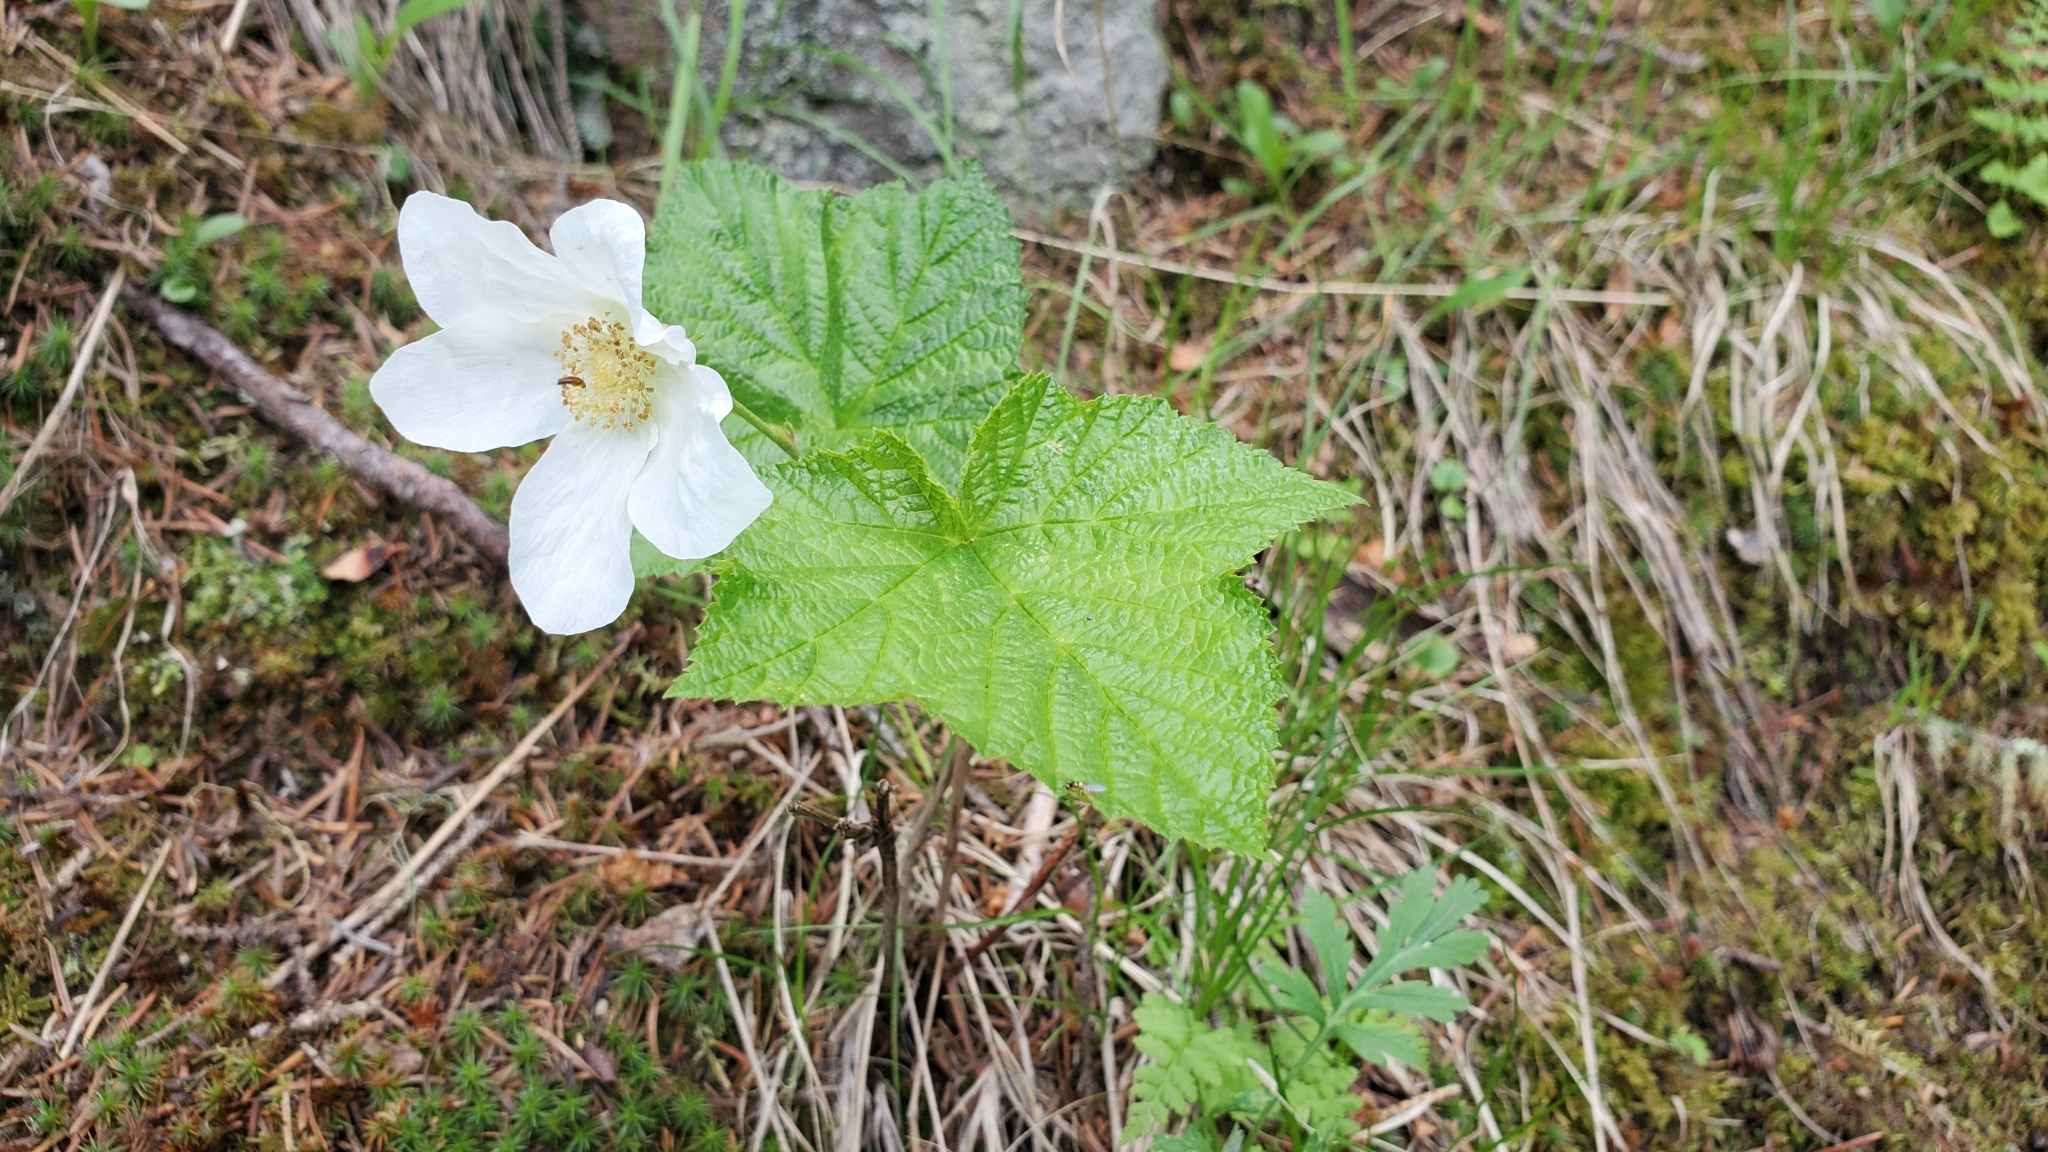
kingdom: Plantae
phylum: Tracheophyta
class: Magnoliopsida
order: Rosales
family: Rosaceae
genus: Rubus
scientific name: Rubus parviflorus
